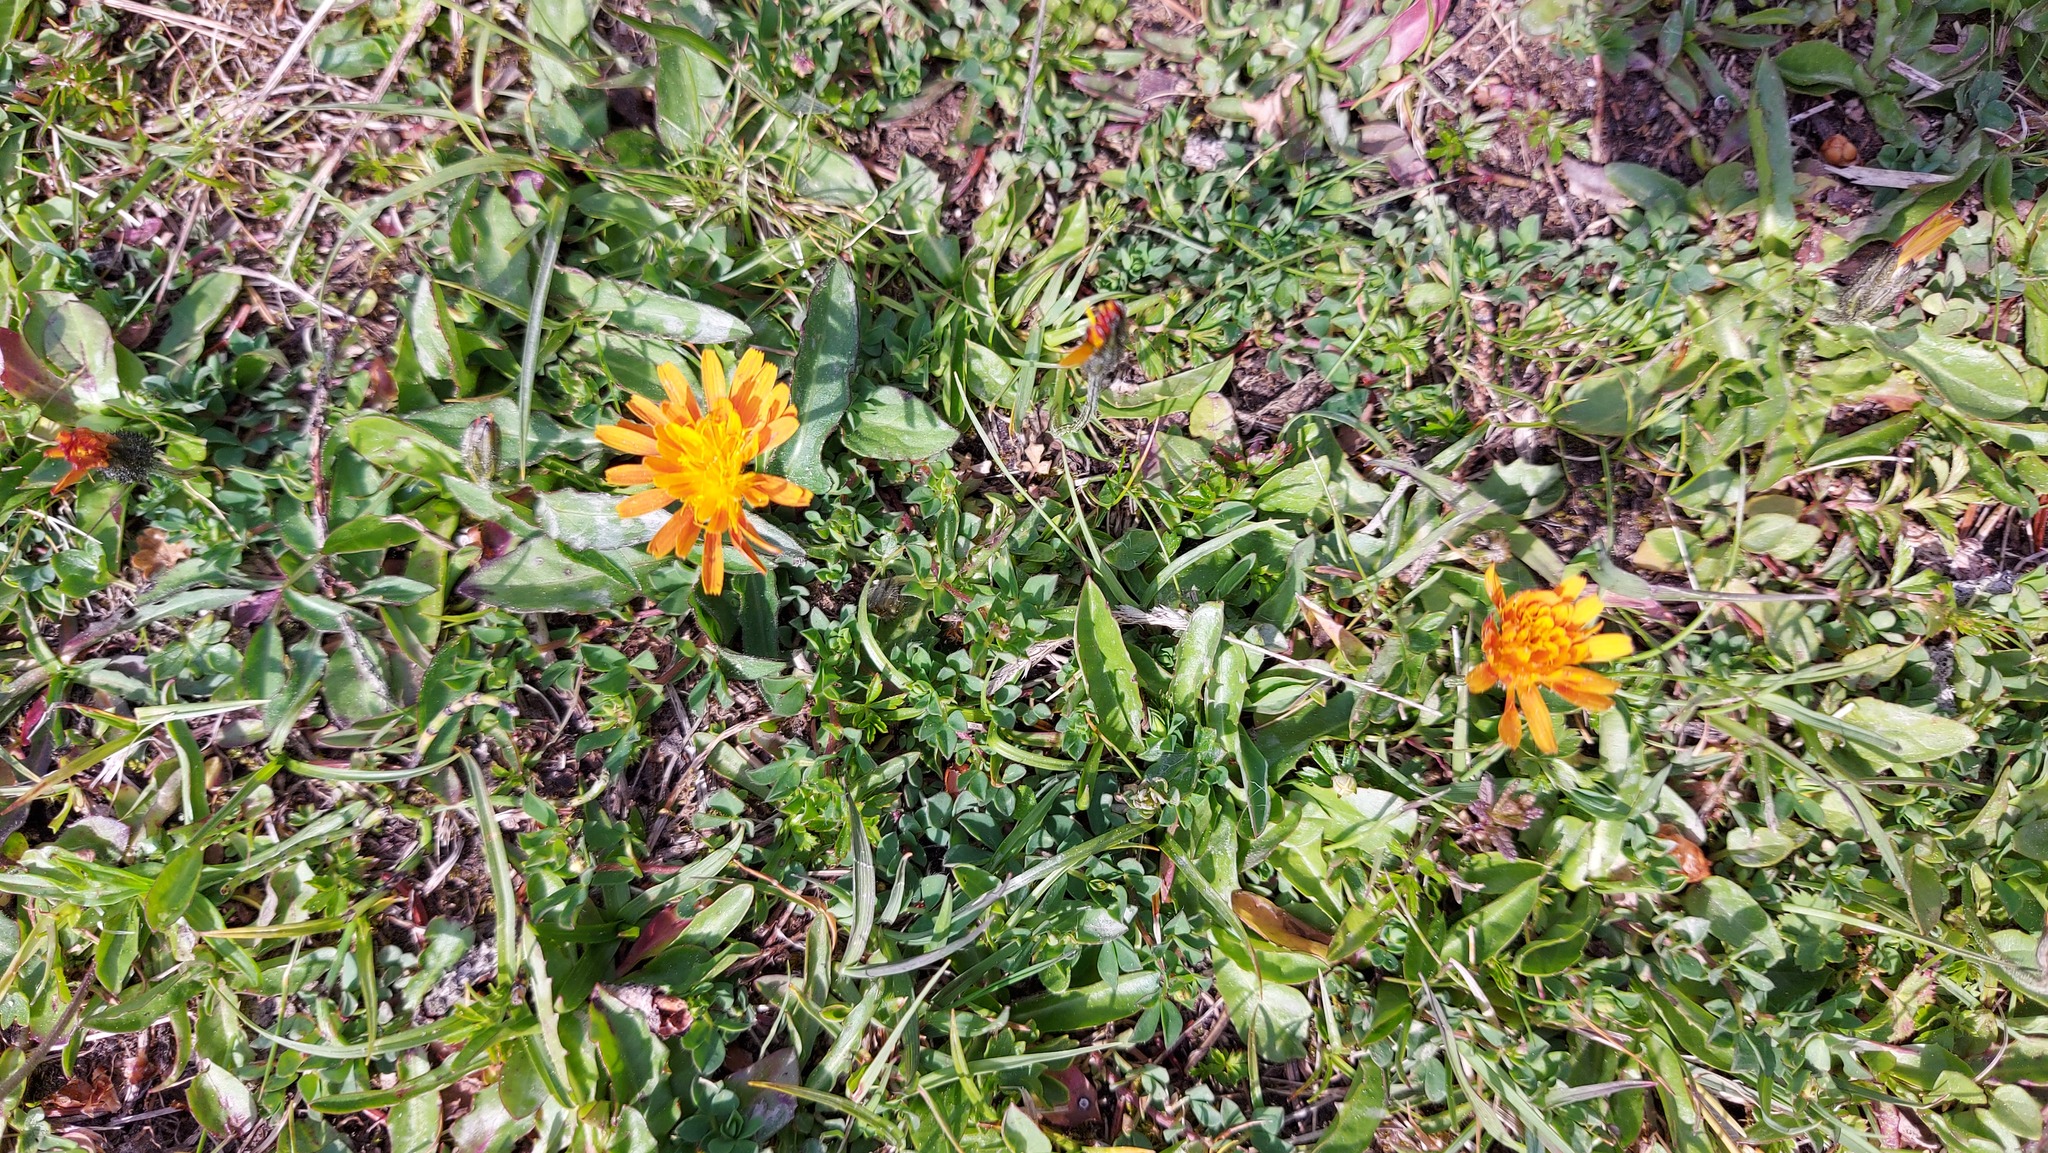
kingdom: Plantae
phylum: Tracheophyta
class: Magnoliopsida
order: Asterales
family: Asteraceae
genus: Crepis
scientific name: Crepis aurea
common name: Golden hawk's-beard
